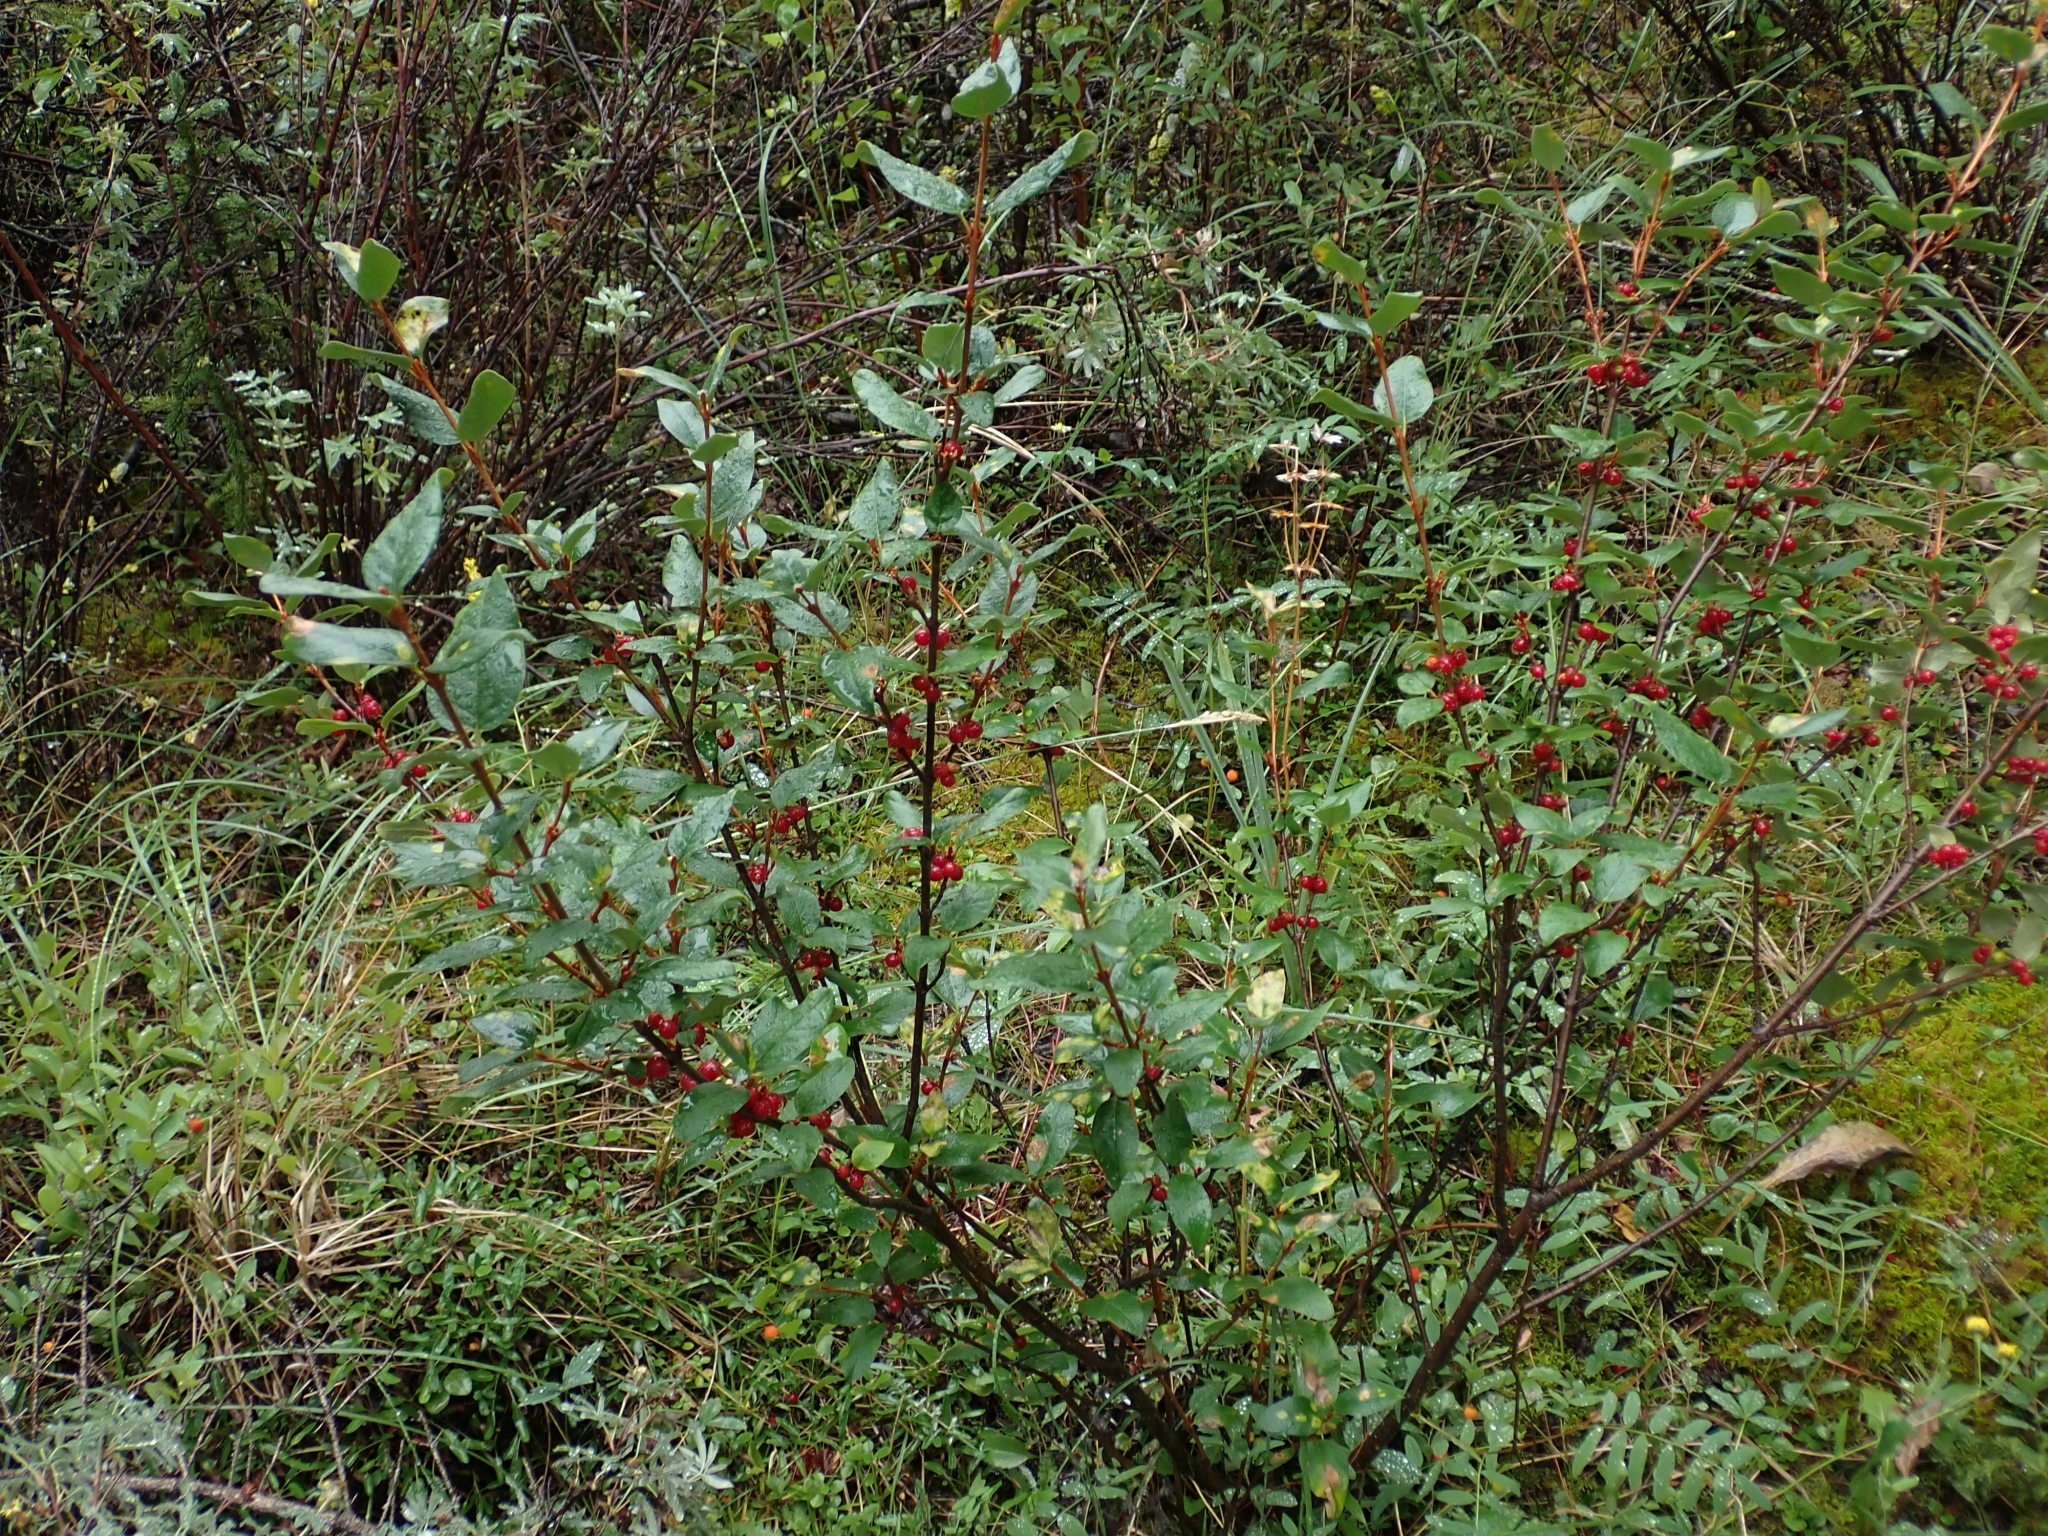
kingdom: Plantae
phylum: Tracheophyta
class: Magnoliopsida
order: Rosales
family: Elaeagnaceae
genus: Shepherdia
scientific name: Shepherdia canadensis
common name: Soapberry
